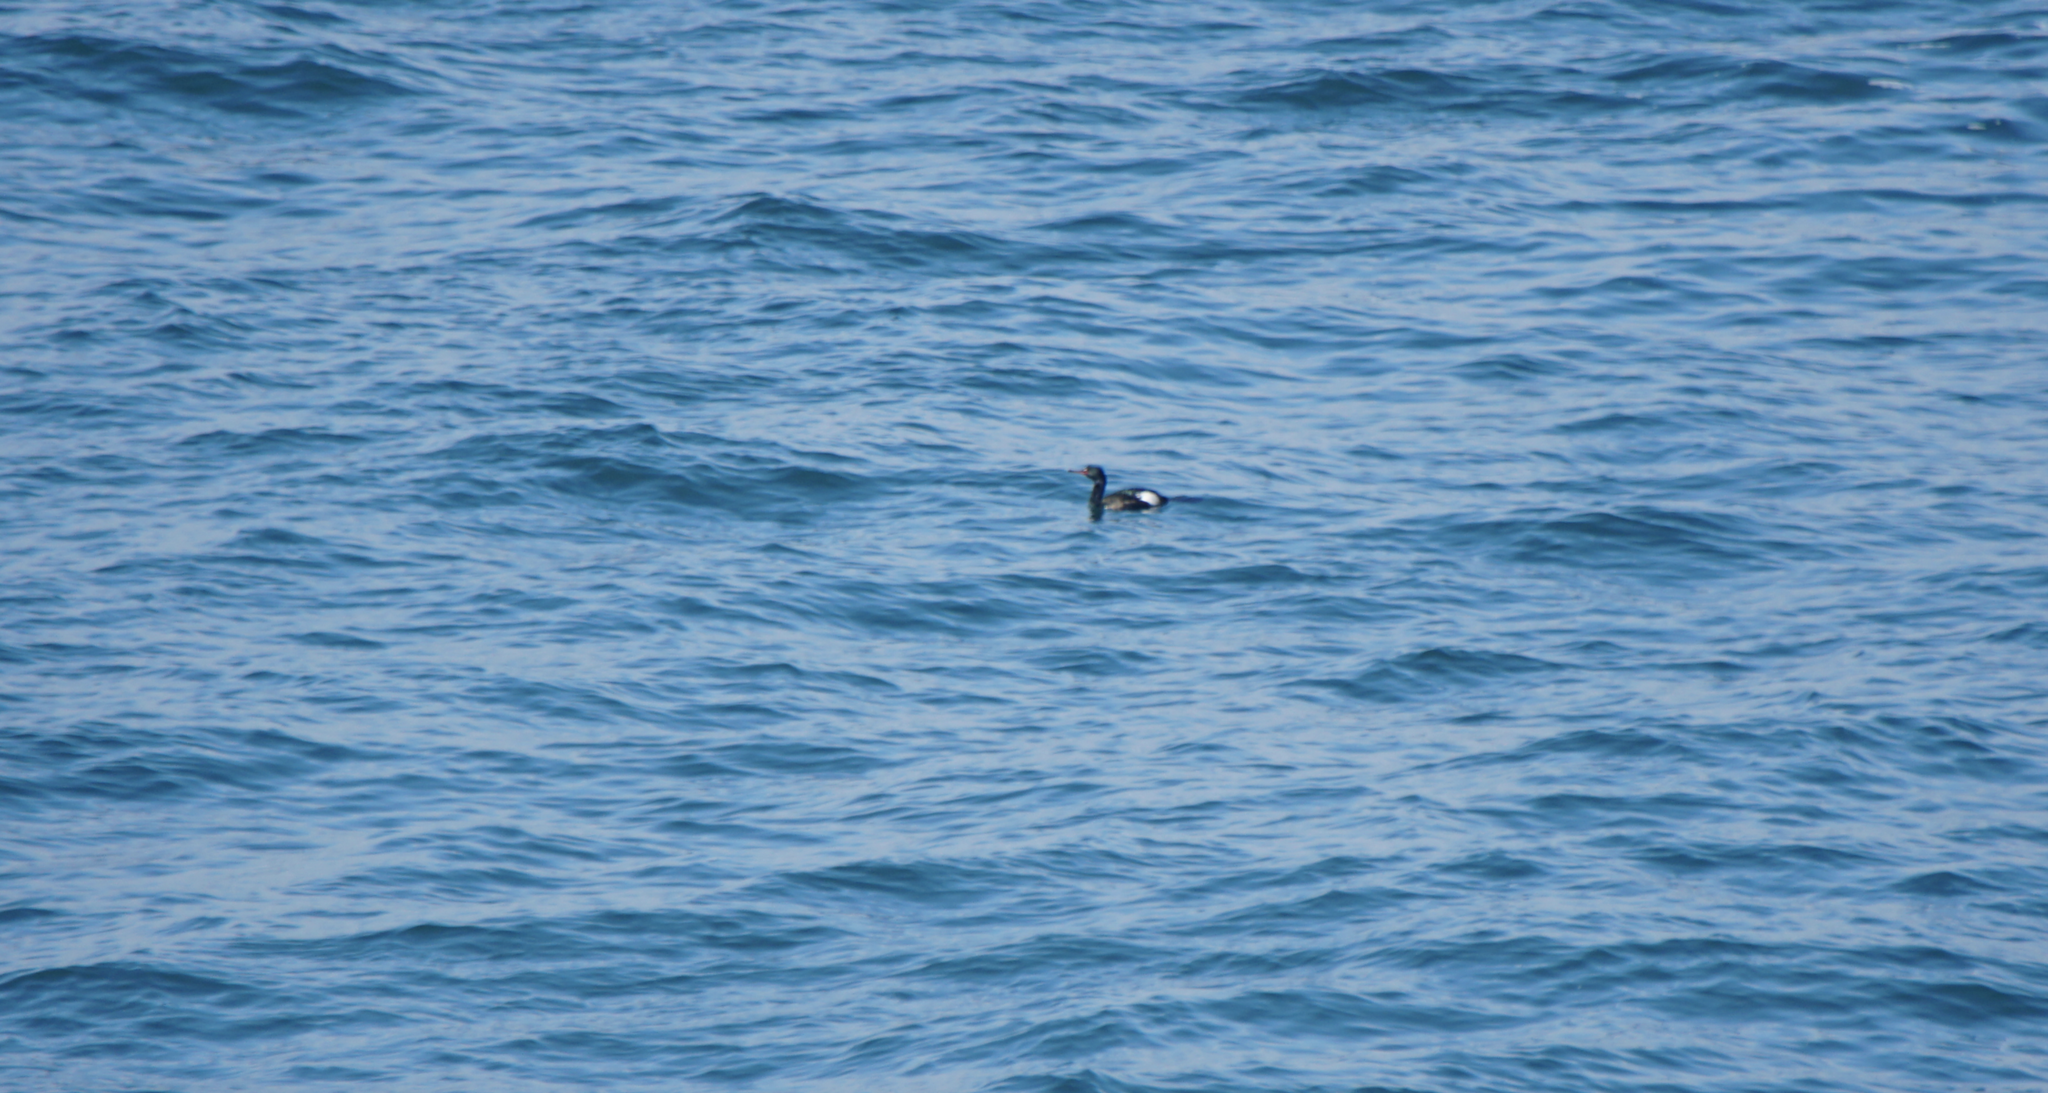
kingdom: Animalia
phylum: Chordata
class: Aves
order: Suliformes
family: Phalacrocoracidae
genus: Phalacrocorax
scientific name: Phalacrocorax pelagicus
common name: Pelagic cormorant
